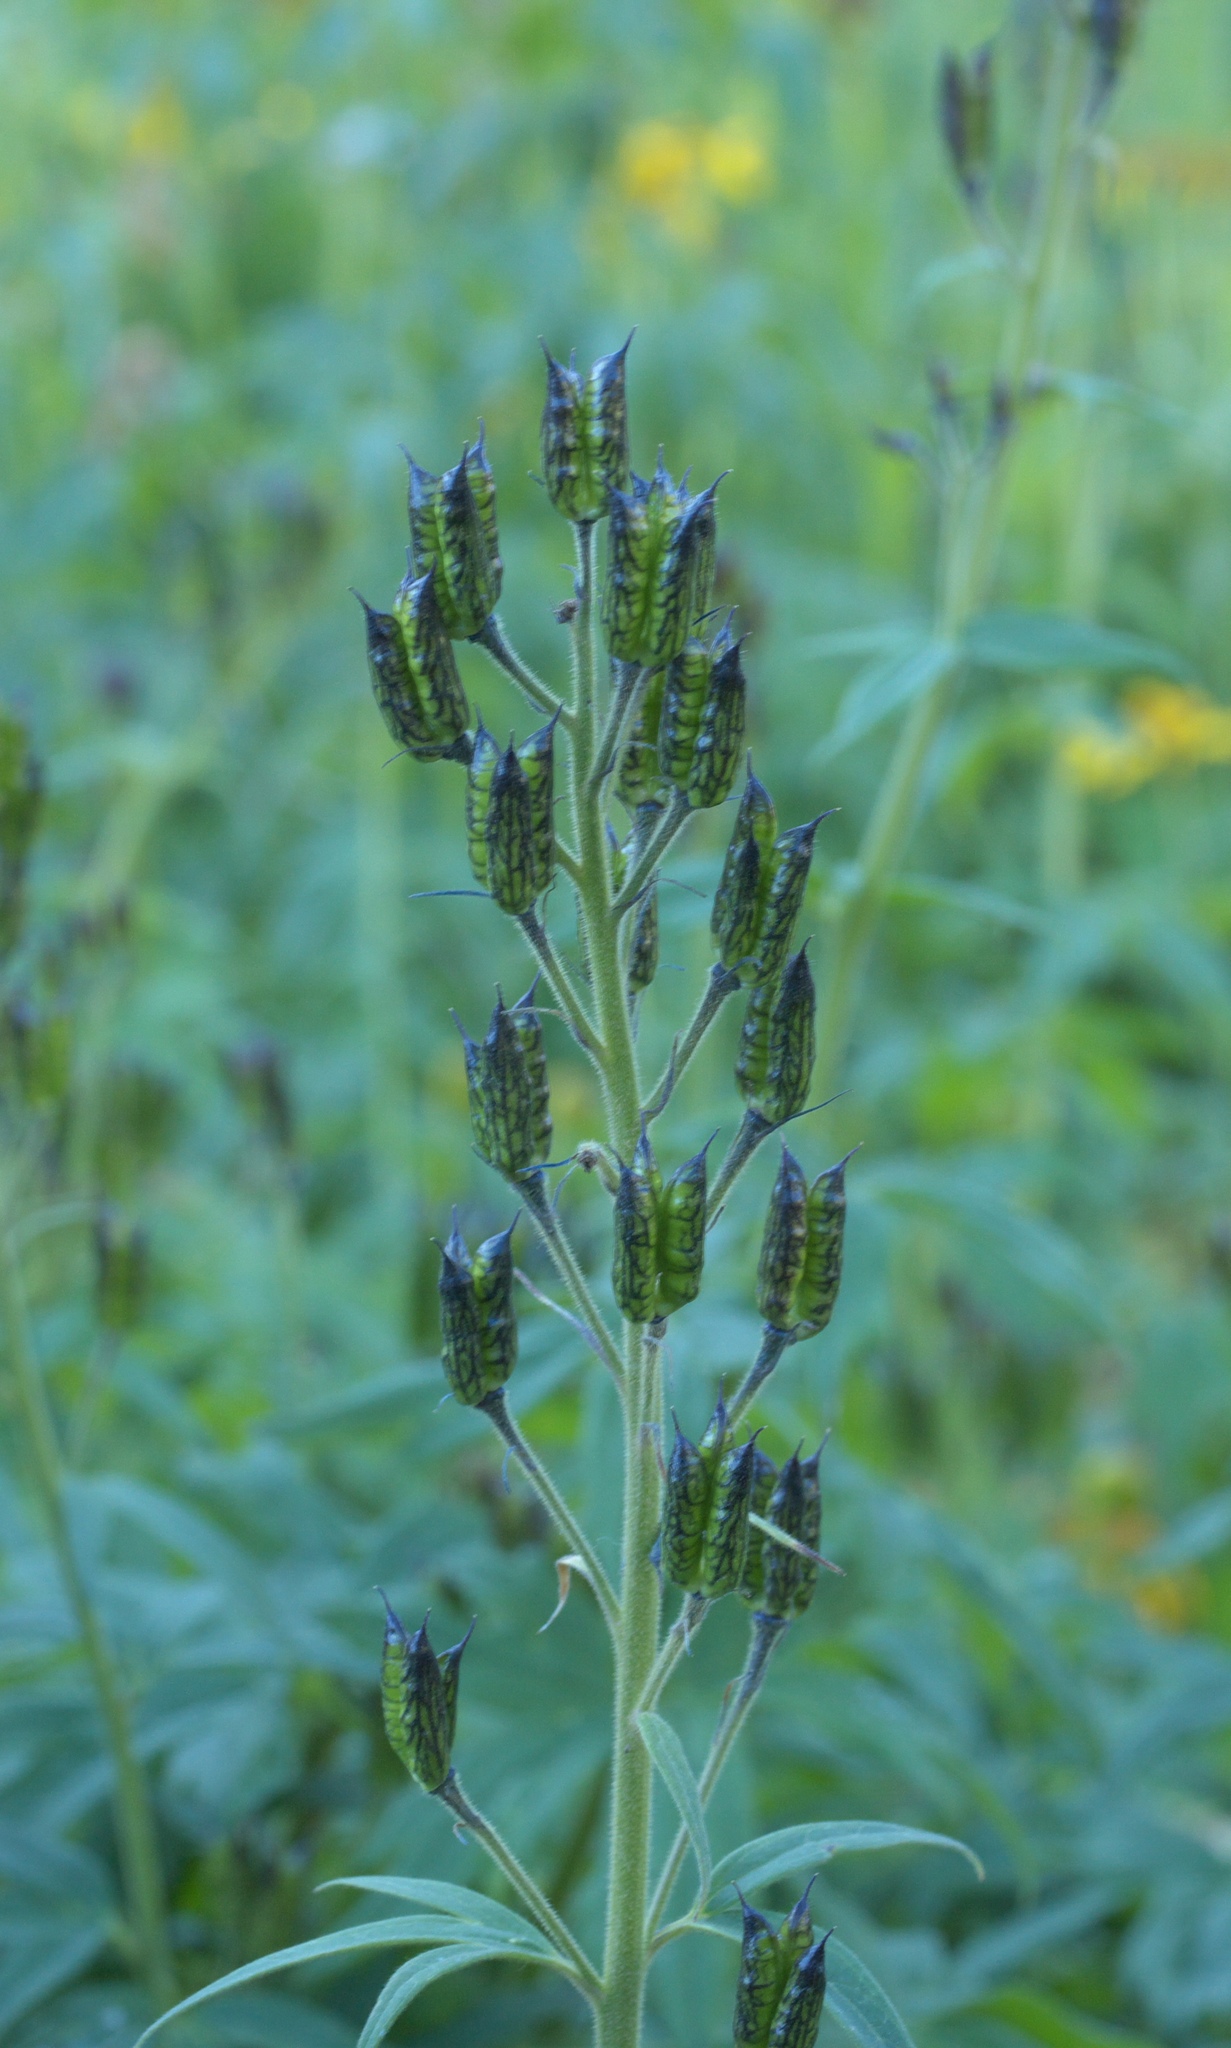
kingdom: Plantae
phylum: Tracheophyta
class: Magnoliopsida
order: Ranunculales
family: Ranunculaceae
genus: Delphinium
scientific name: Delphinium barbeyi
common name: Subalpine larkspur
